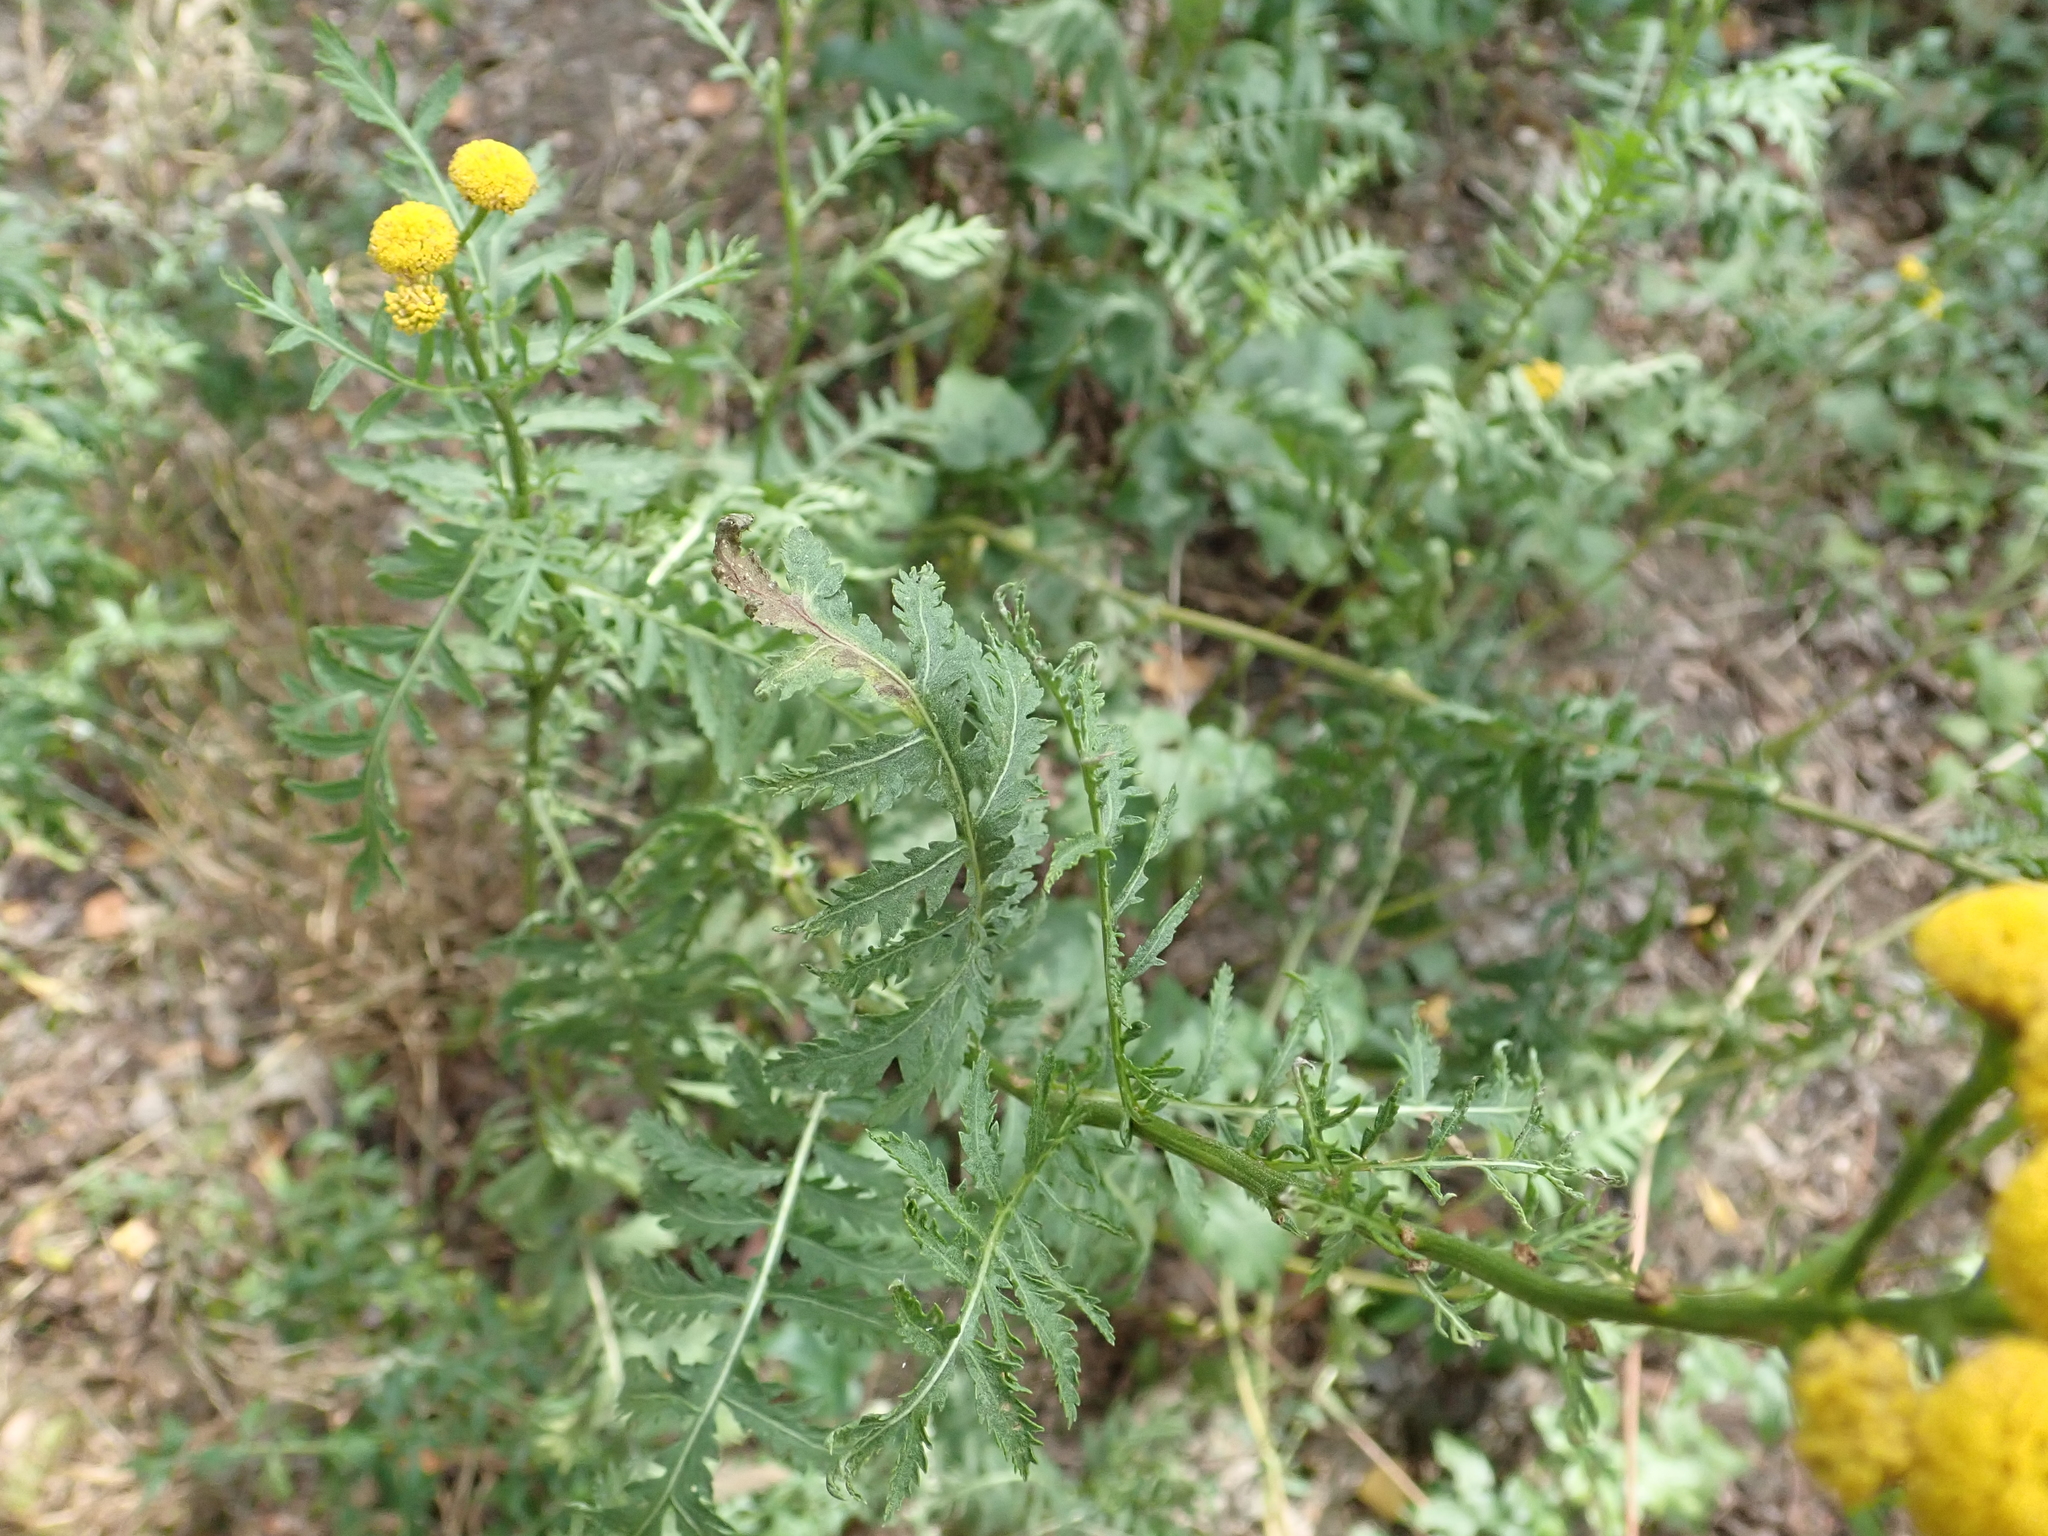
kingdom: Plantae
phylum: Tracheophyta
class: Magnoliopsida
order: Asterales
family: Asteraceae
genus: Tanacetum
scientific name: Tanacetum vulgare
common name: Common tansy
